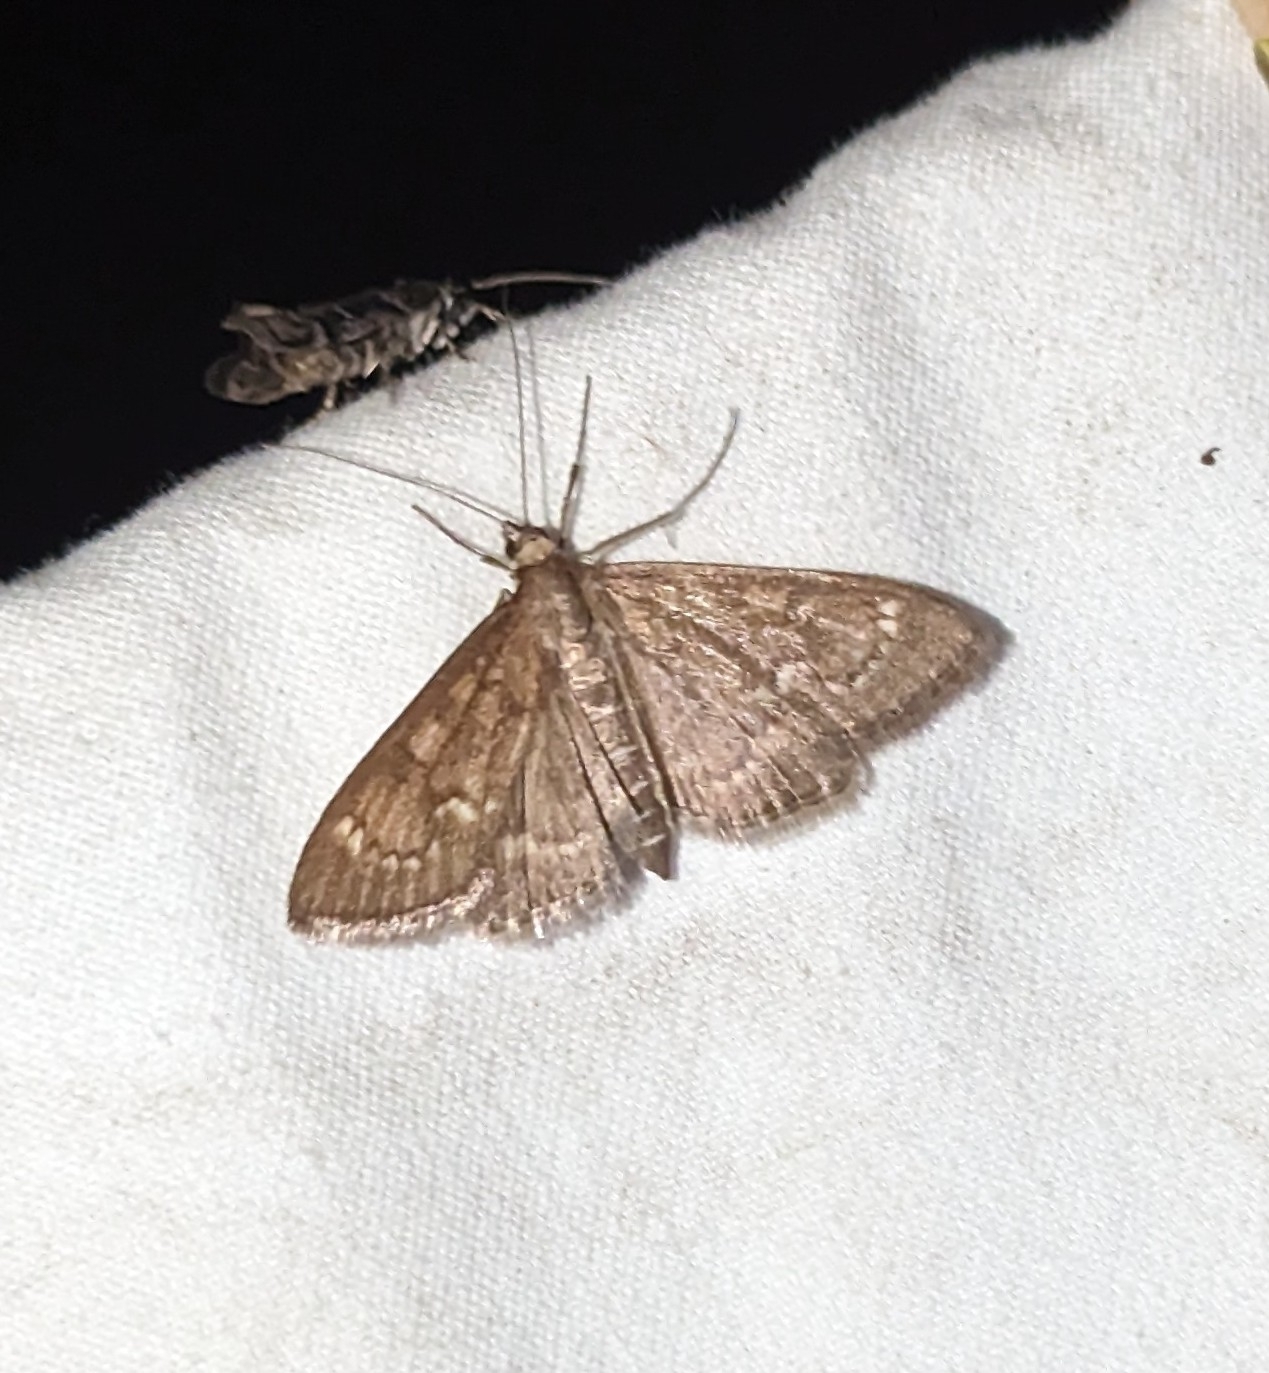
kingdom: Animalia
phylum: Arthropoda
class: Insecta
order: Lepidoptera
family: Crambidae
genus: Mecyna
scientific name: Mecyna mustelinalis
